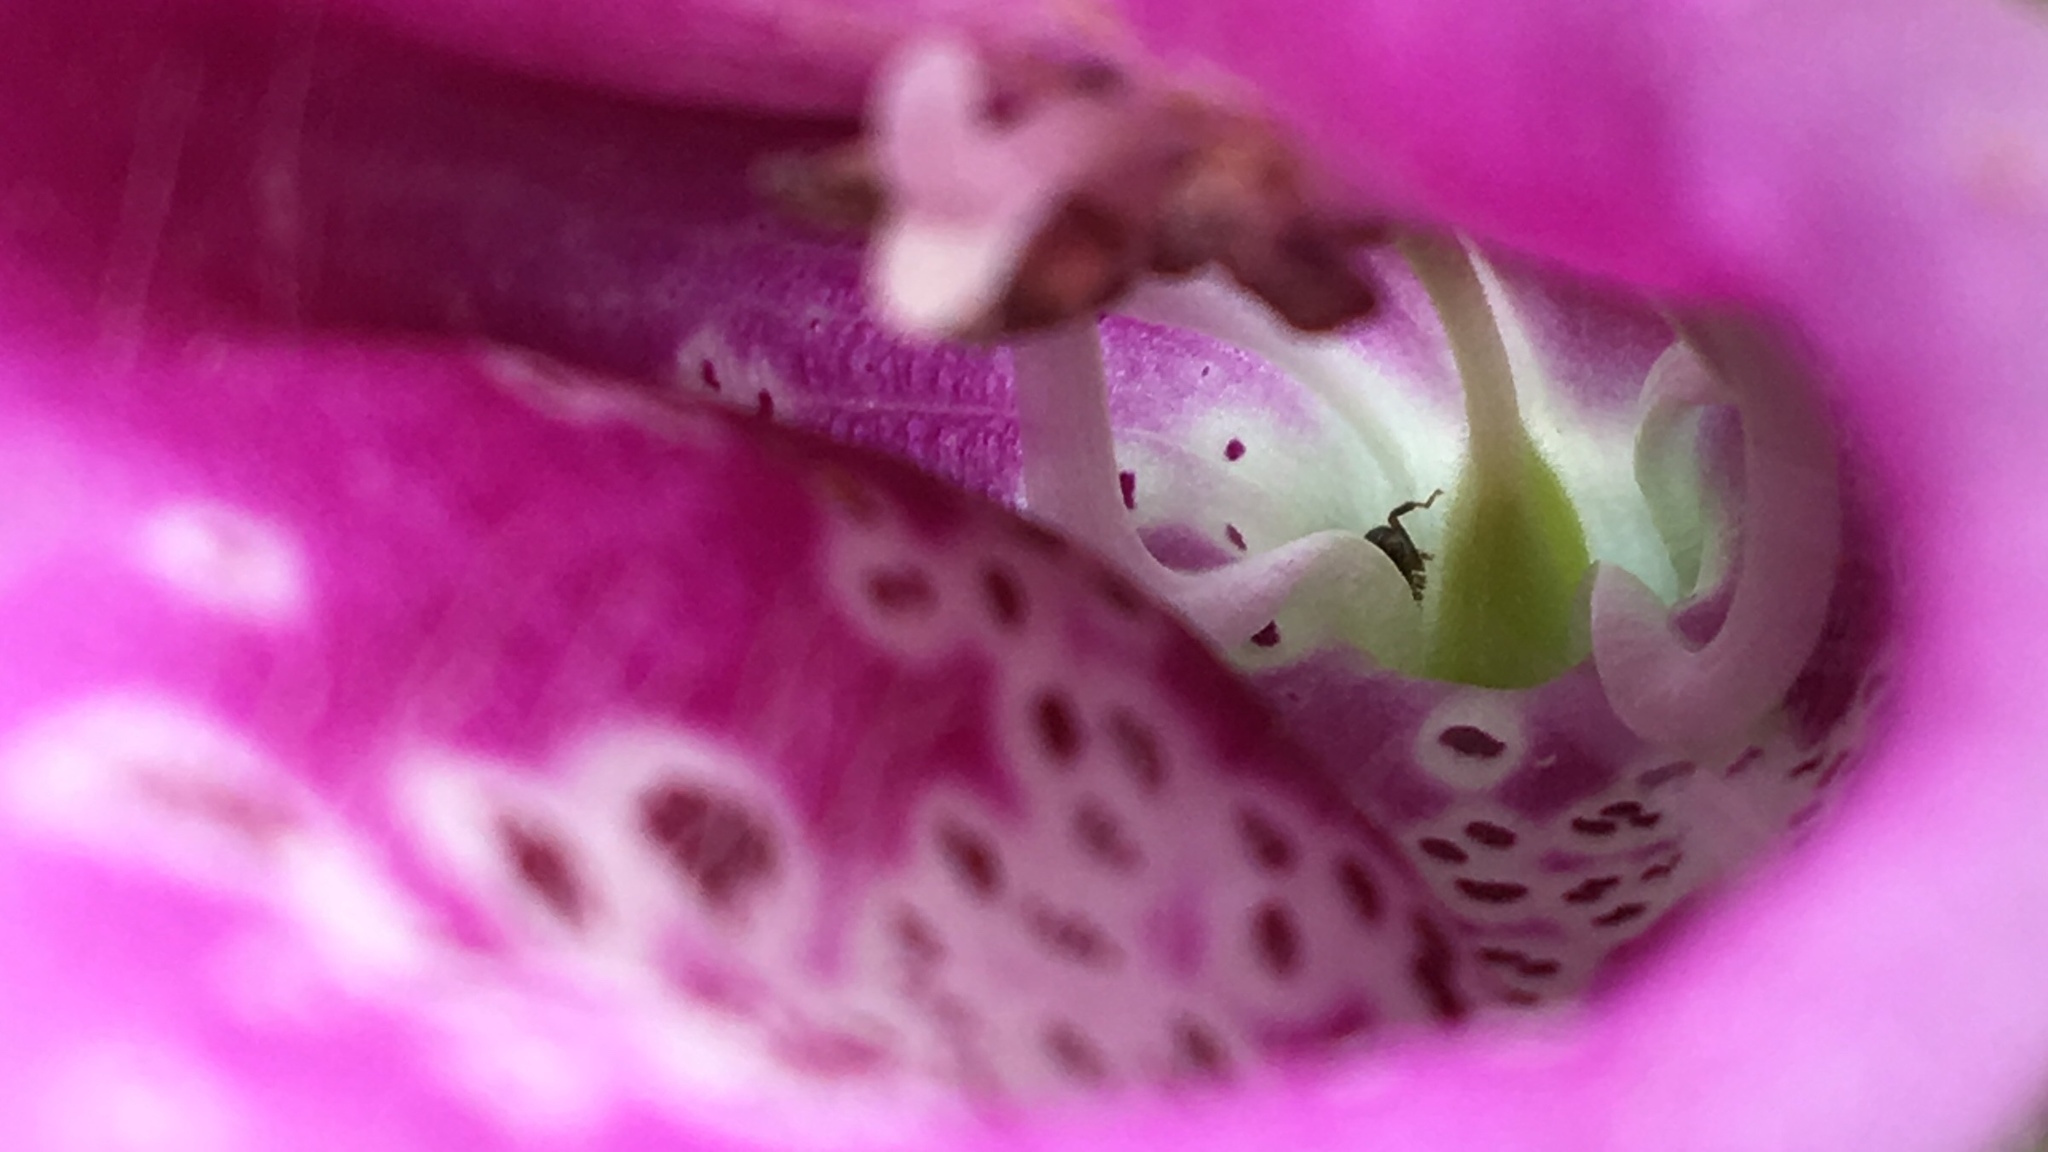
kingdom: Plantae
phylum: Tracheophyta
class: Magnoliopsida
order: Lamiales
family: Plantaginaceae
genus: Digitalis
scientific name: Digitalis purpurea
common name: Foxglove
